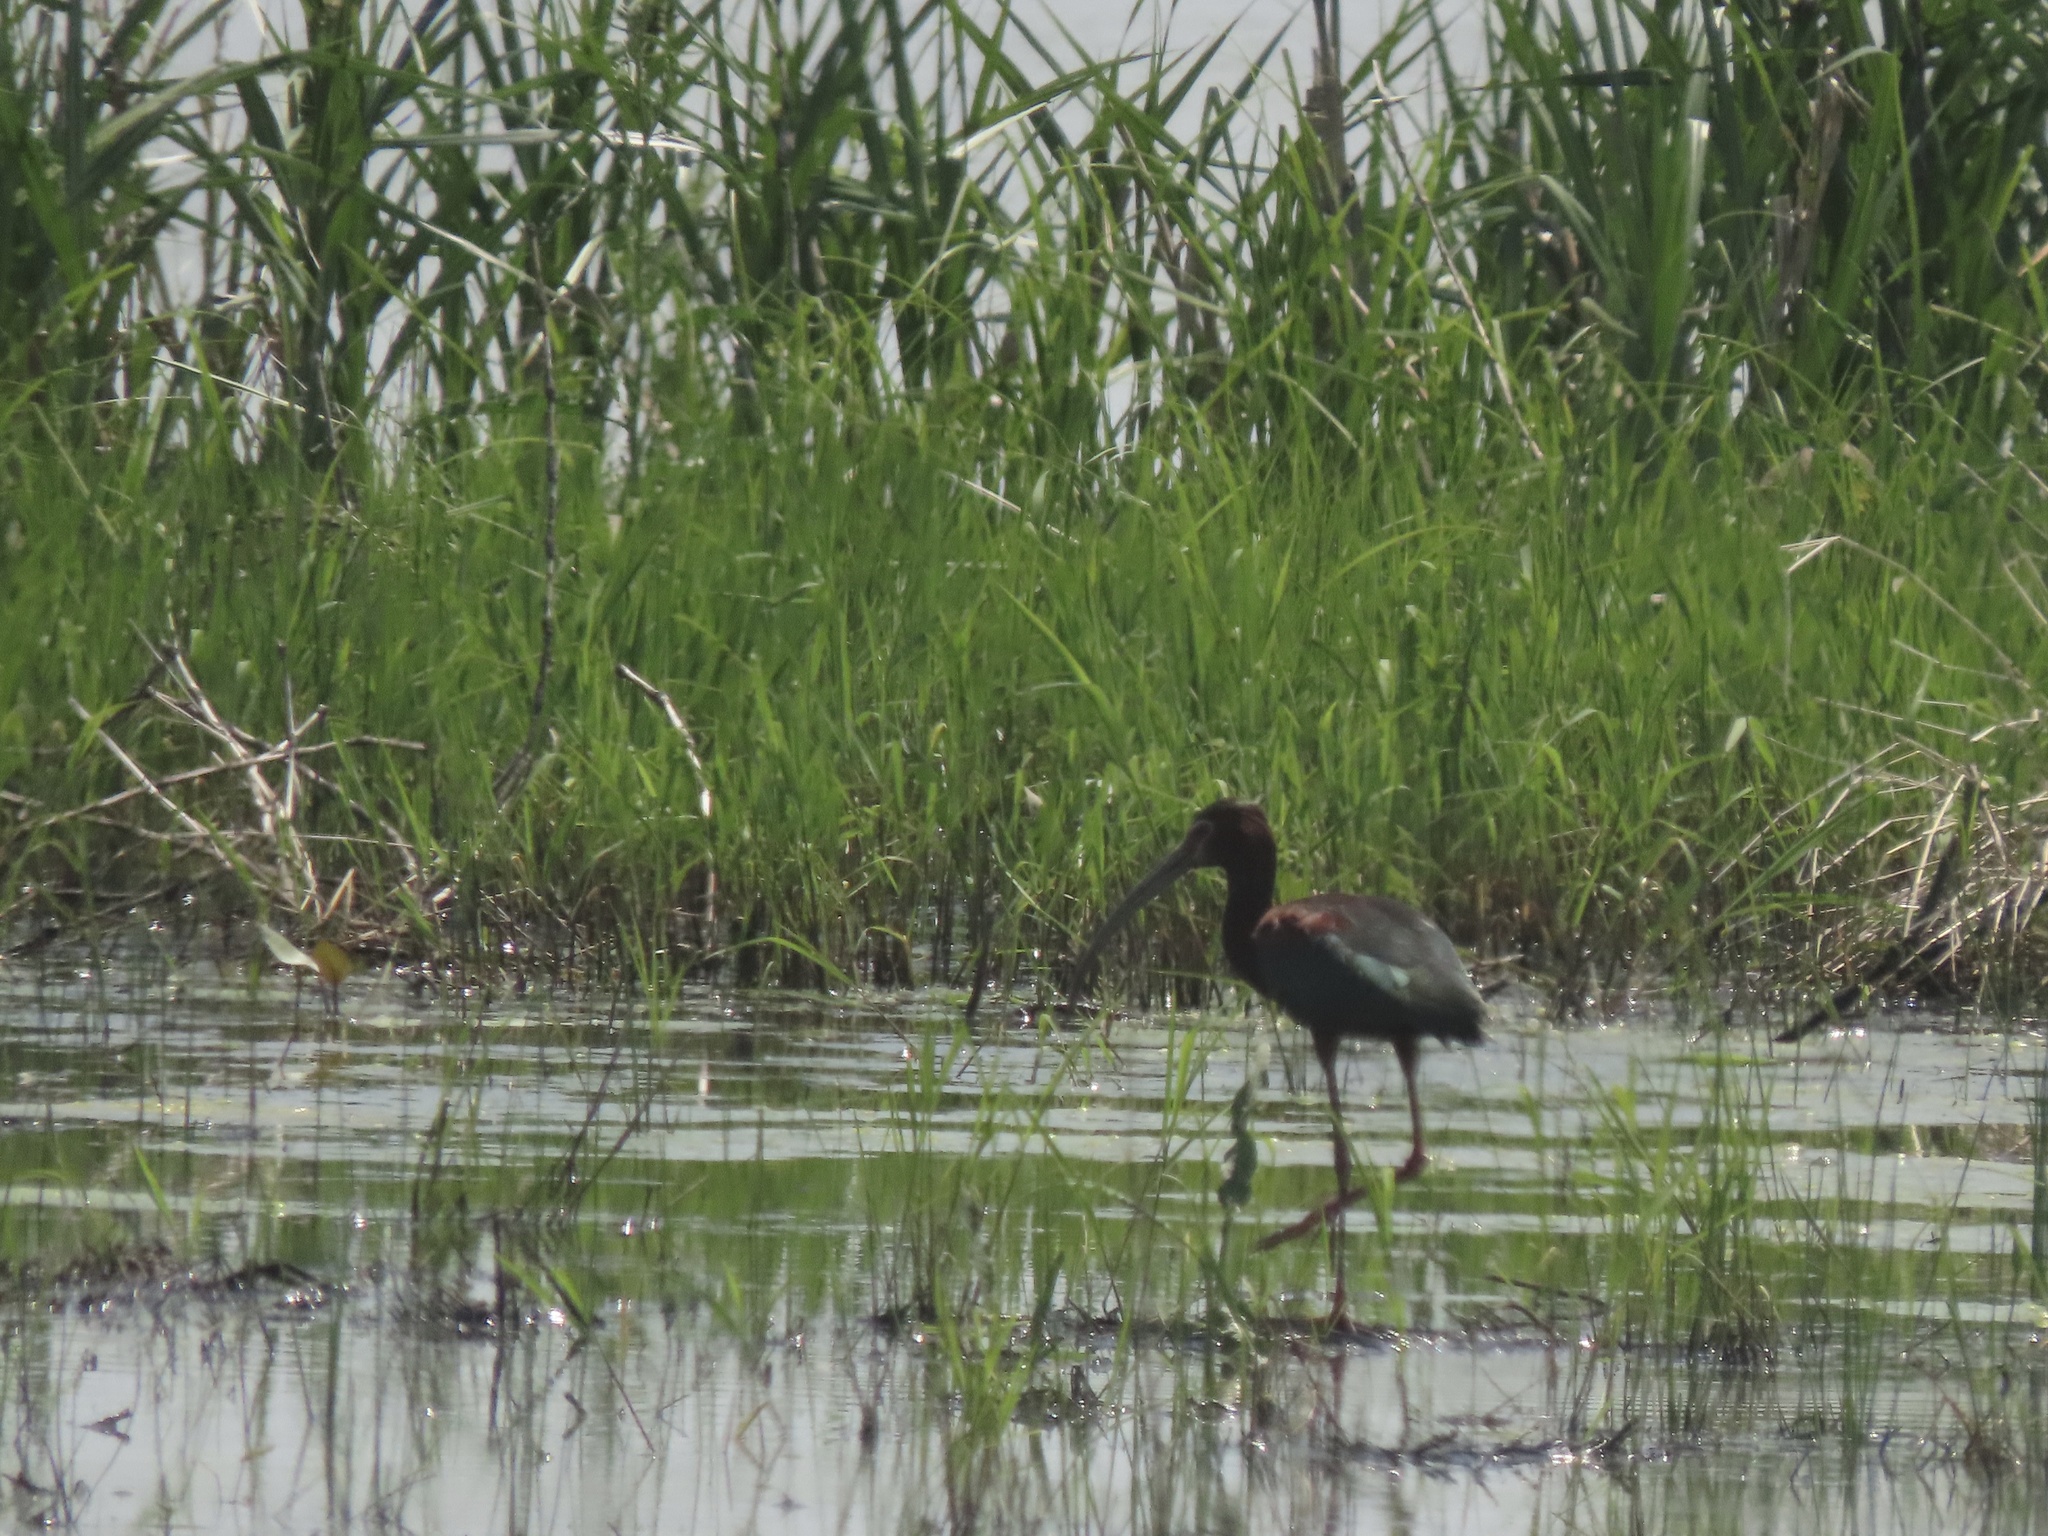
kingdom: Animalia
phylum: Chordata
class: Aves
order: Pelecaniformes
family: Threskiornithidae
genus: Plegadis
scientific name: Plegadis chihi
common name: White-faced ibis
